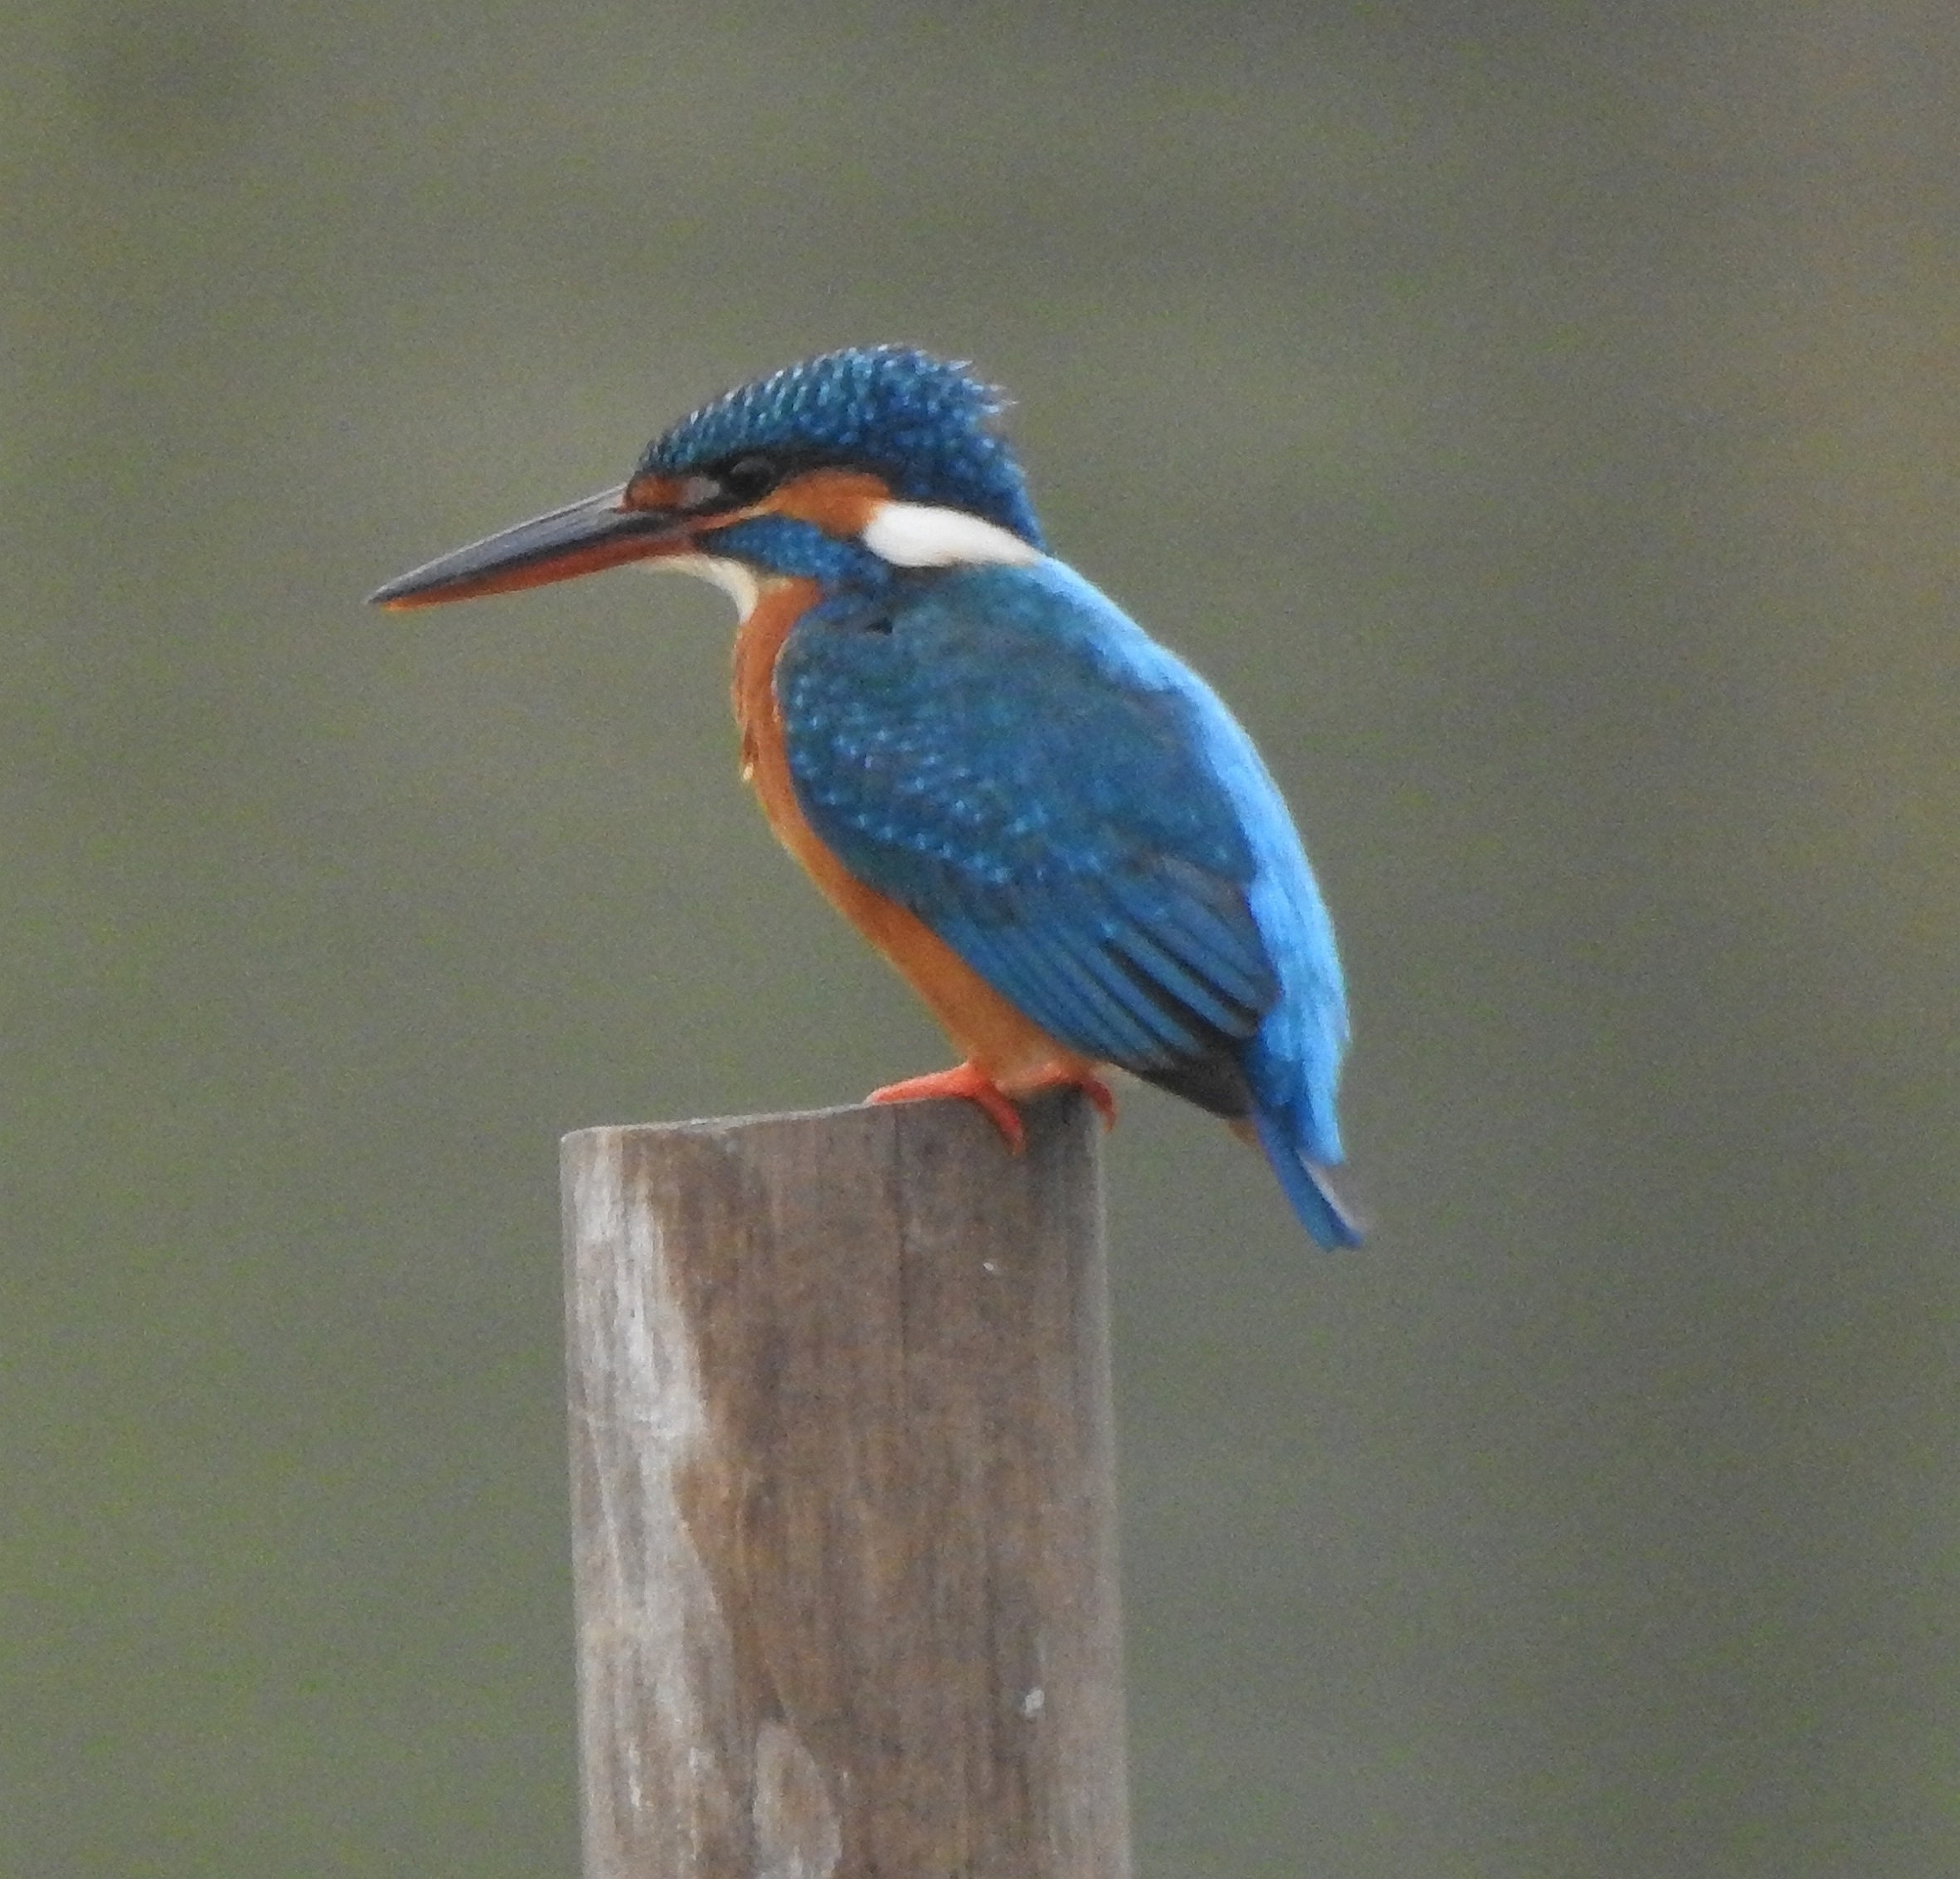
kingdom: Animalia
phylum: Chordata
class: Aves
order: Coraciiformes
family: Alcedinidae
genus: Alcedo
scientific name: Alcedo atthis
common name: Common kingfisher
